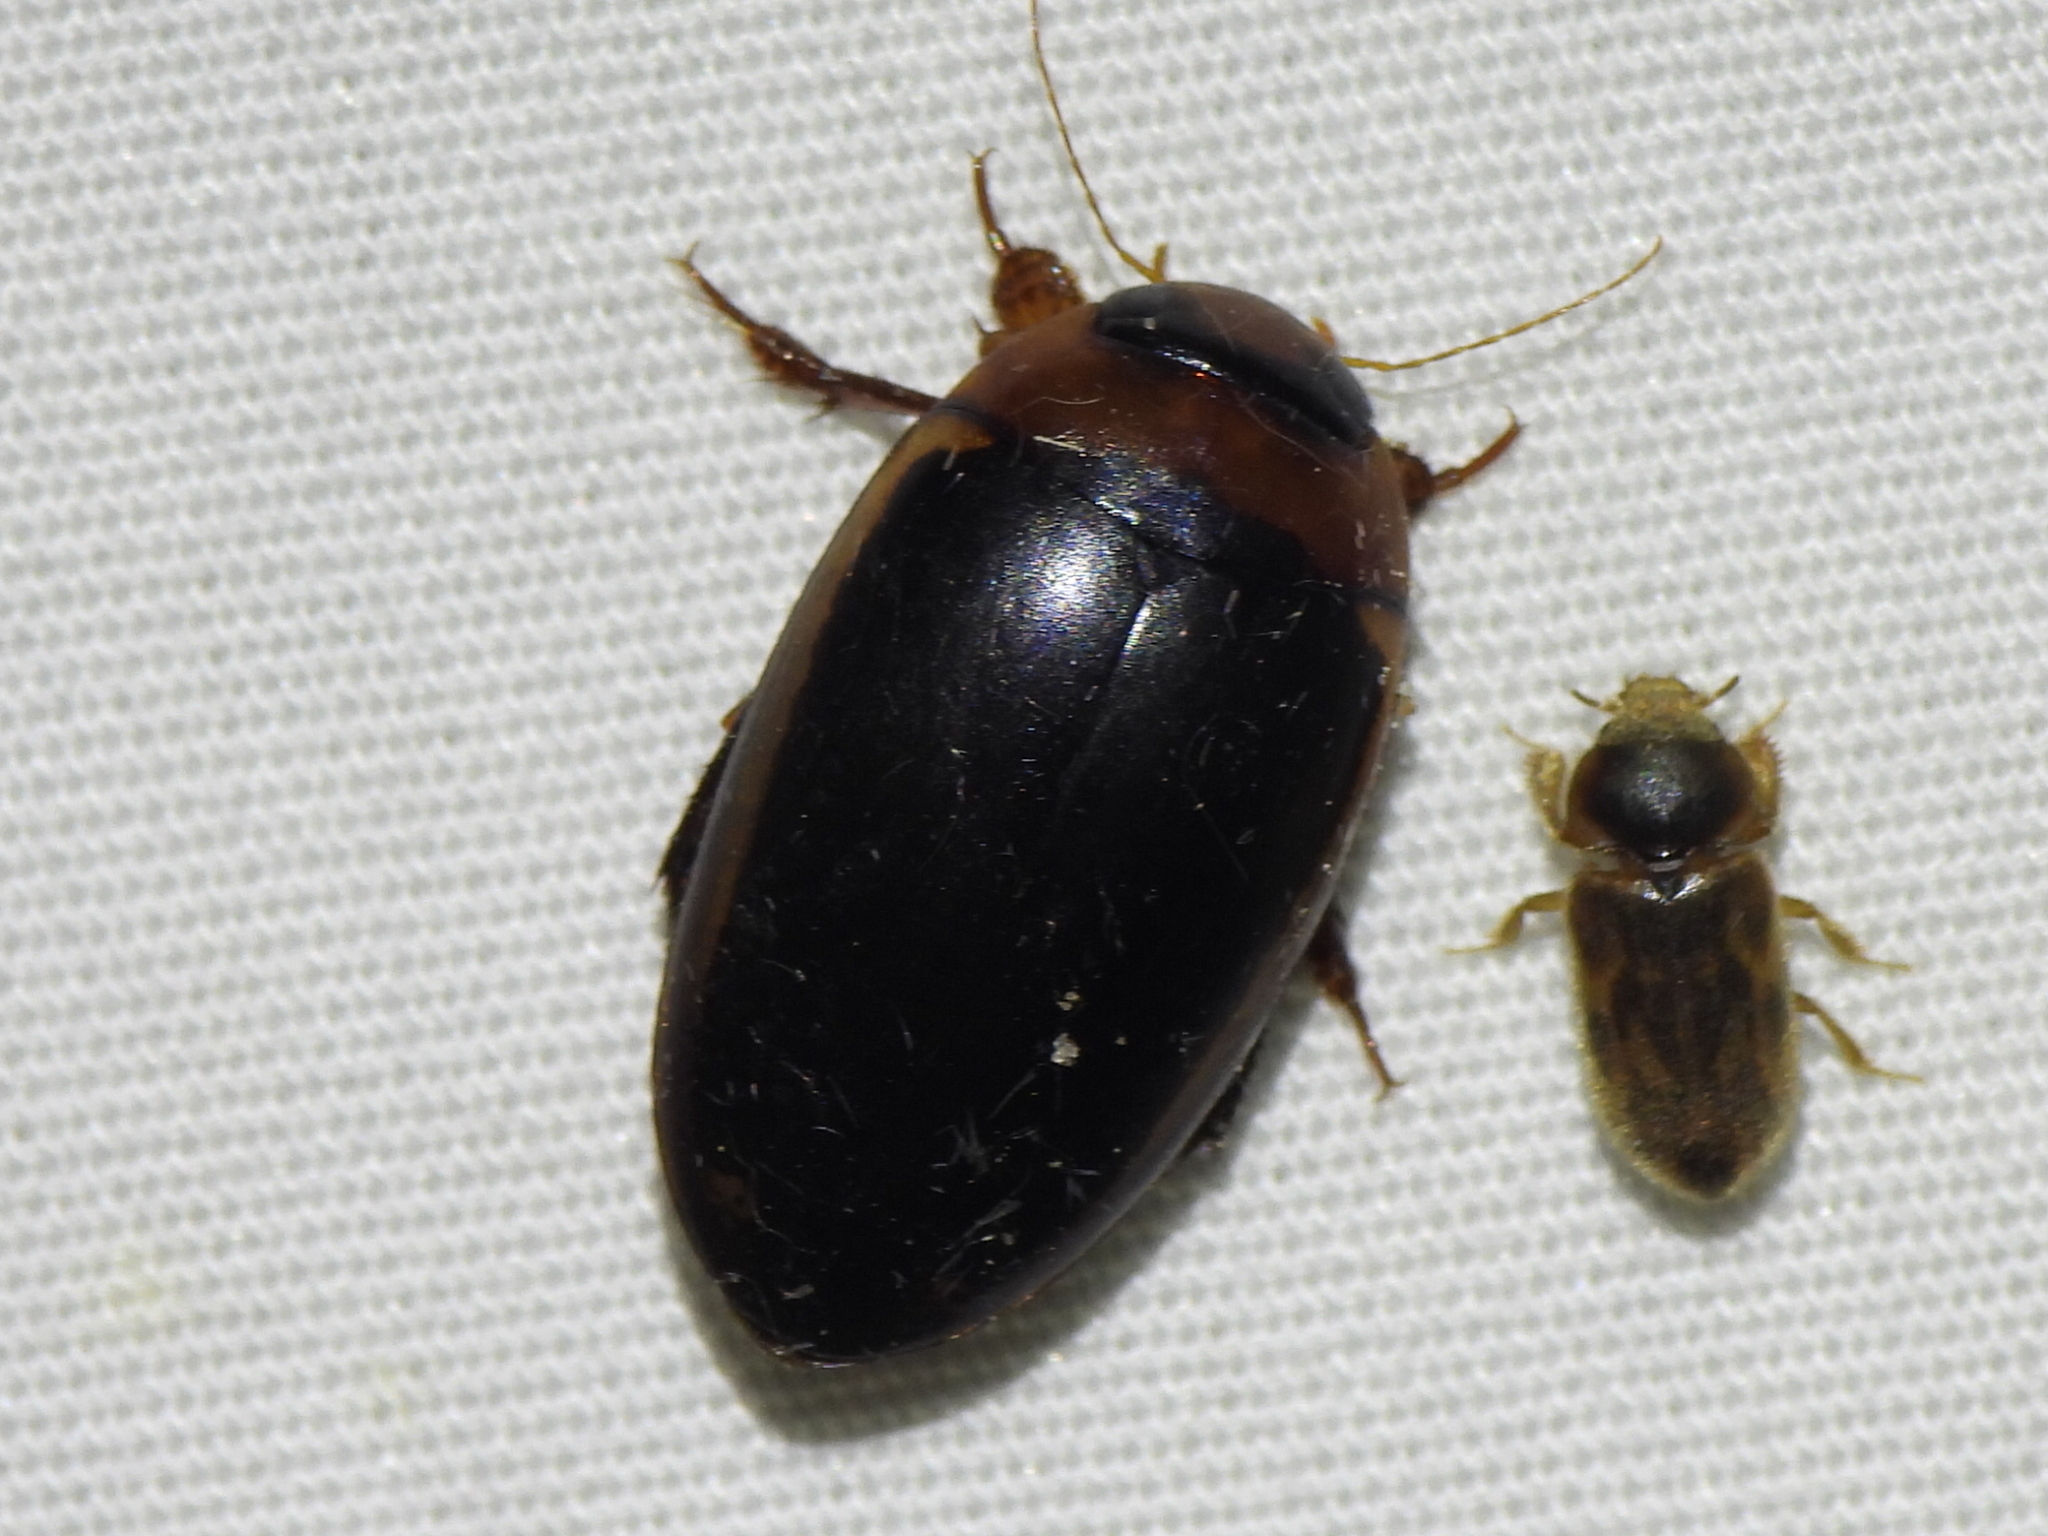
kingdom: Animalia
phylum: Arthropoda
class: Insecta
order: Coleoptera
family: Dytiscidae
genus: Hydaticus
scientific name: Hydaticus bimarginatus
